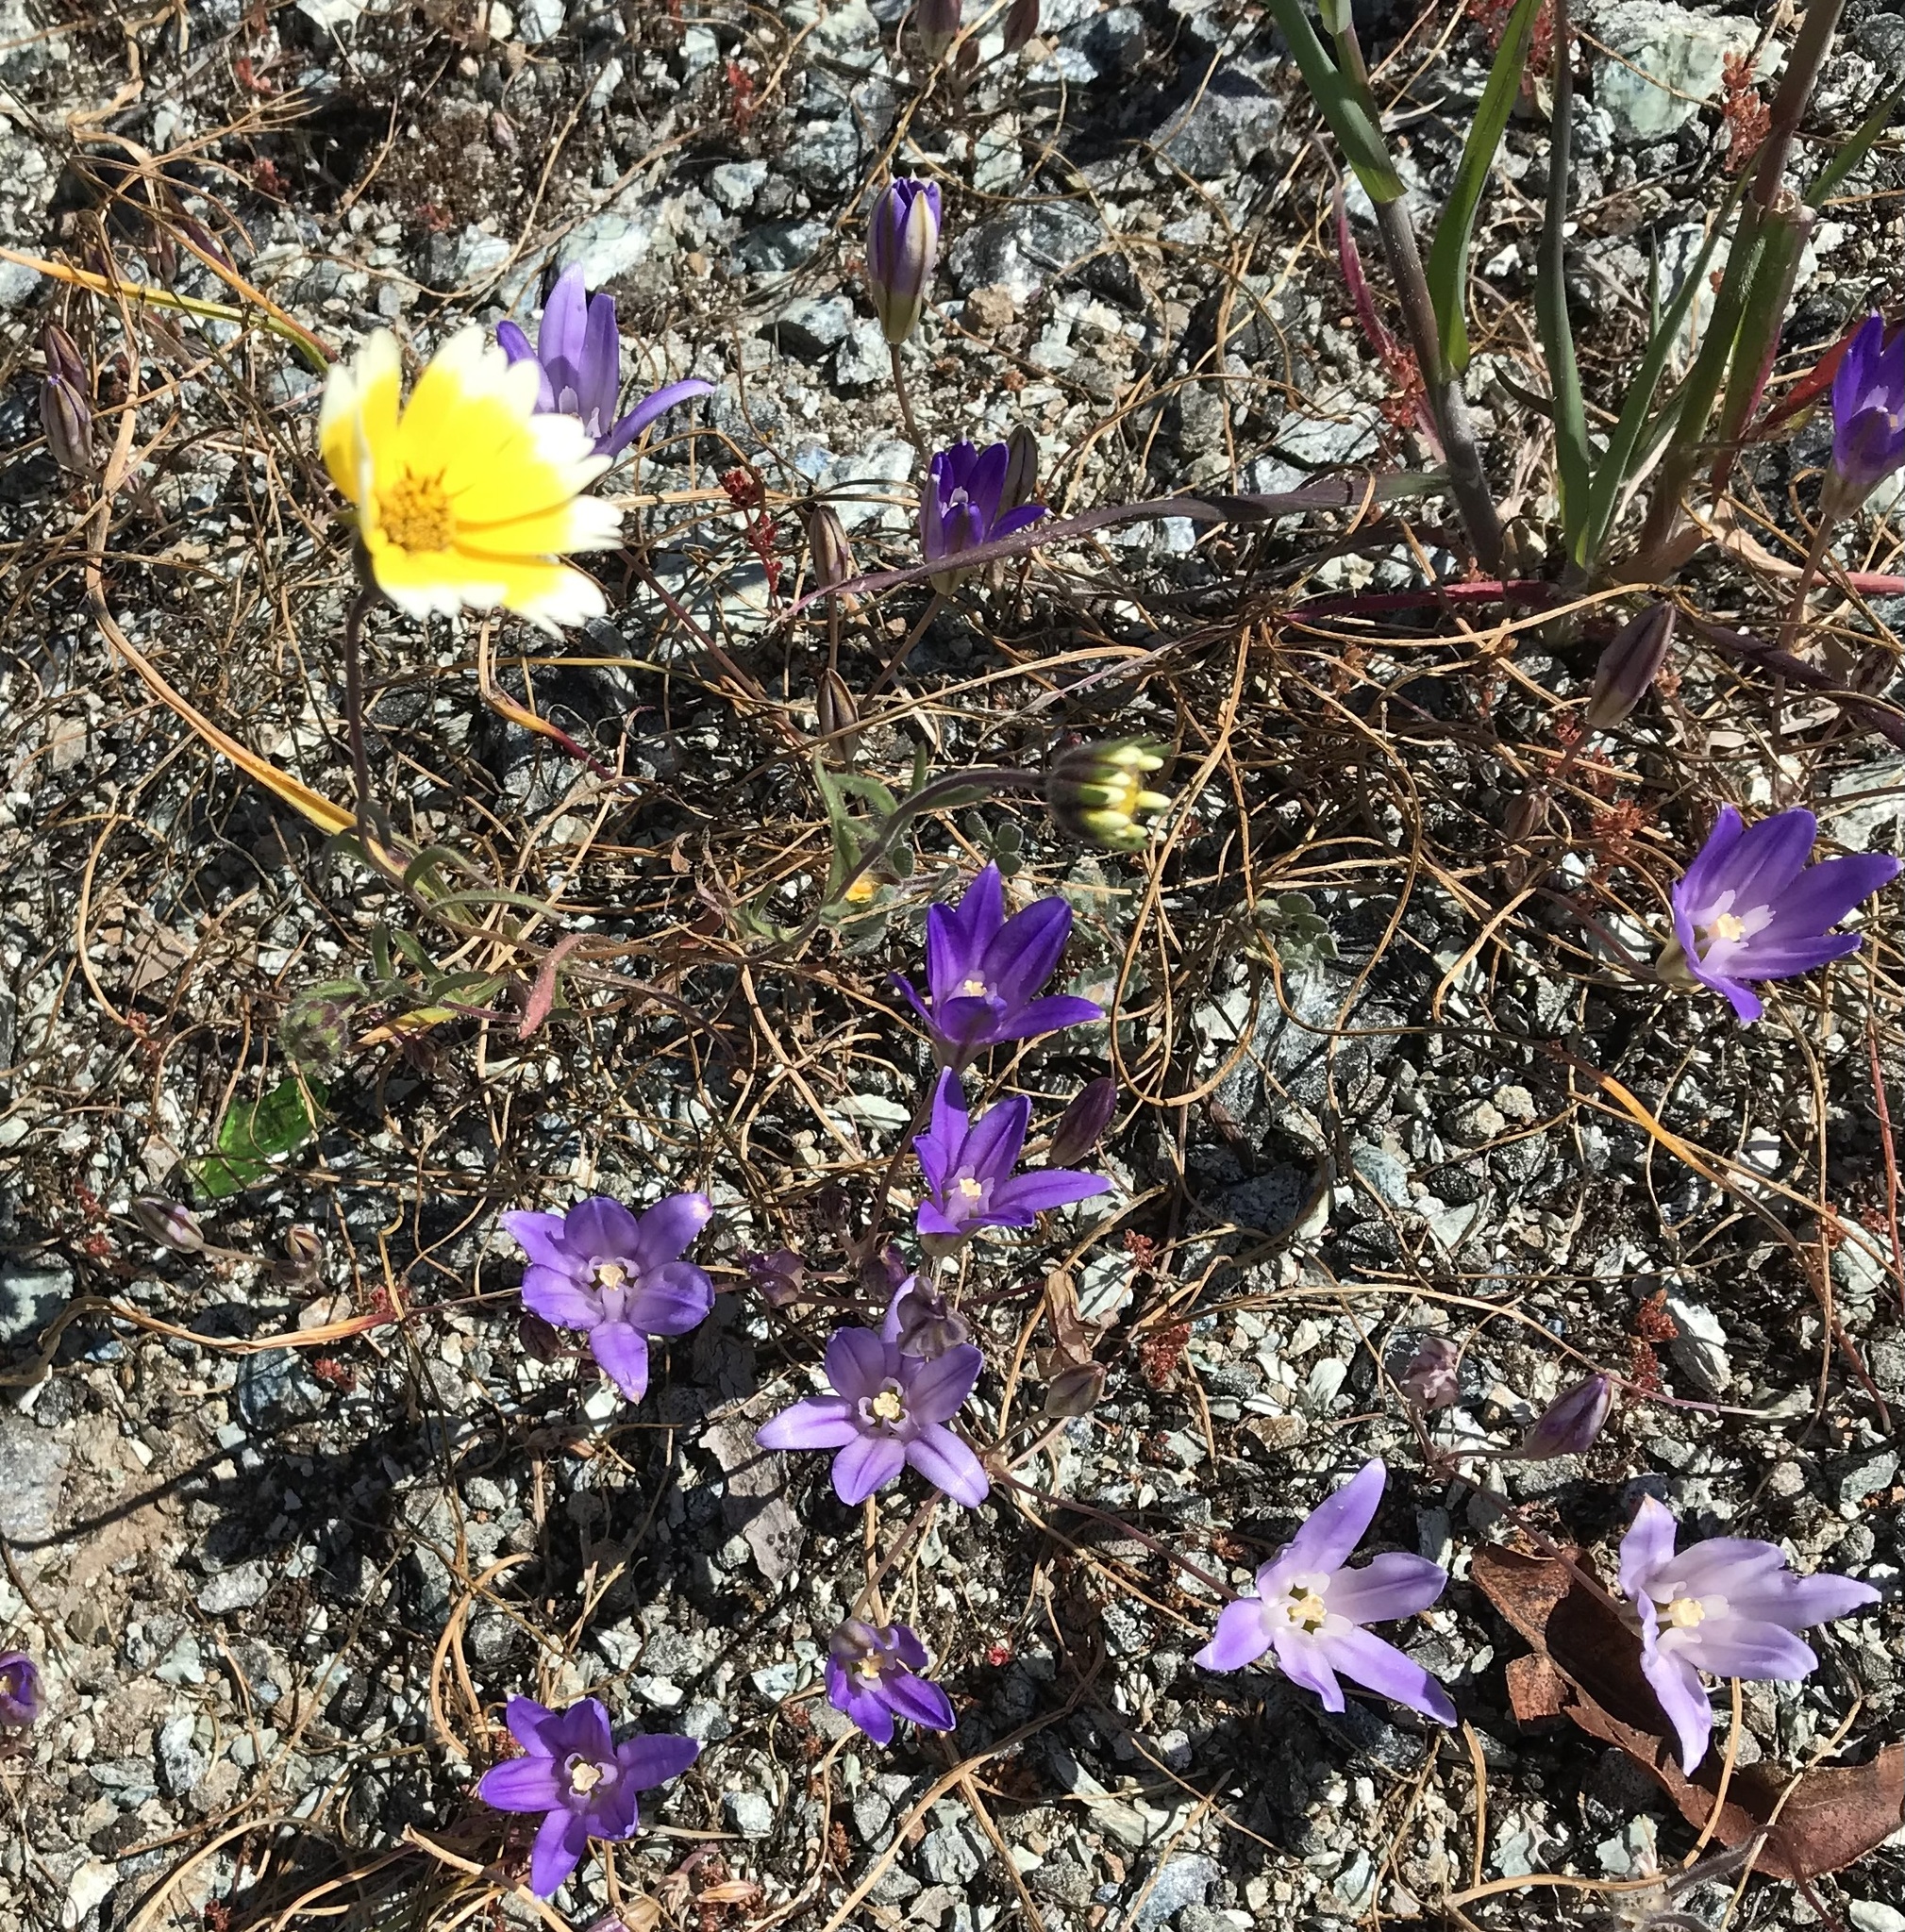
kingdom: Plantae
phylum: Tracheophyta
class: Liliopsida
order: Asparagales
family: Asparagaceae
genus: Brodiaea
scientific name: Brodiaea terrestris
